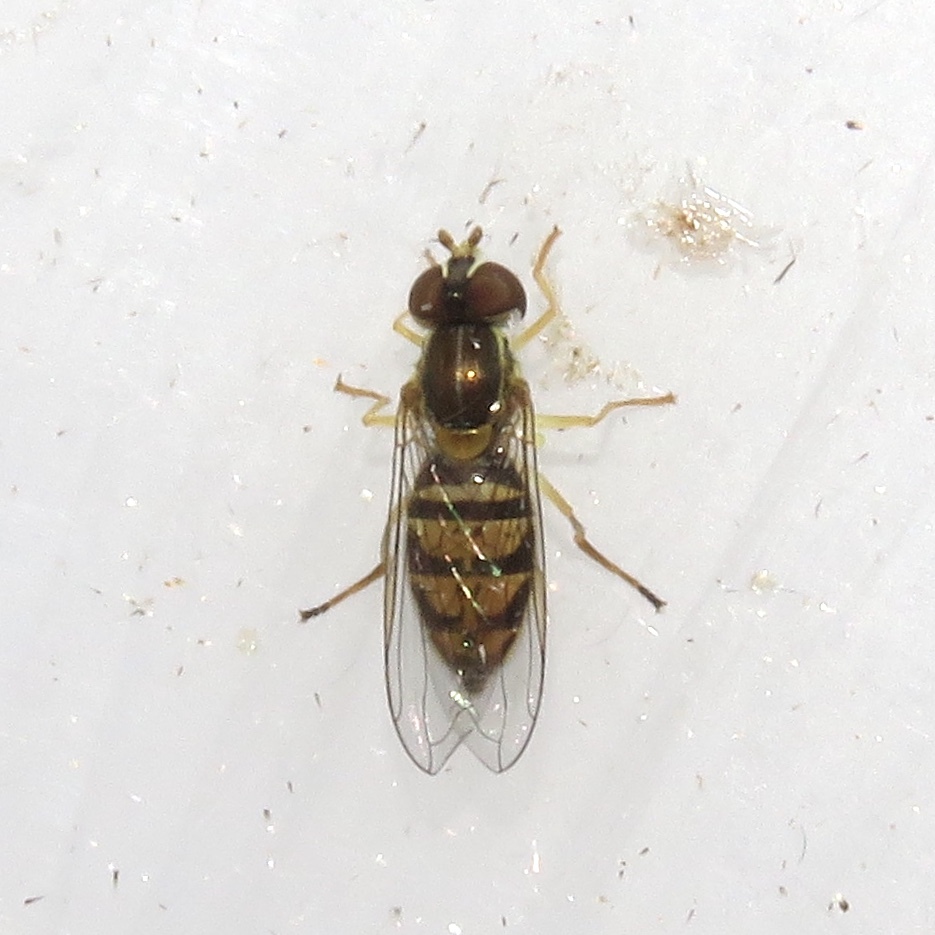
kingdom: Animalia
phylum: Arthropoda
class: Insecta
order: Diptera
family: Syrphidae
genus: Toxomerus
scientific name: Toxomerus marginatus
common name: Syrphid fly
